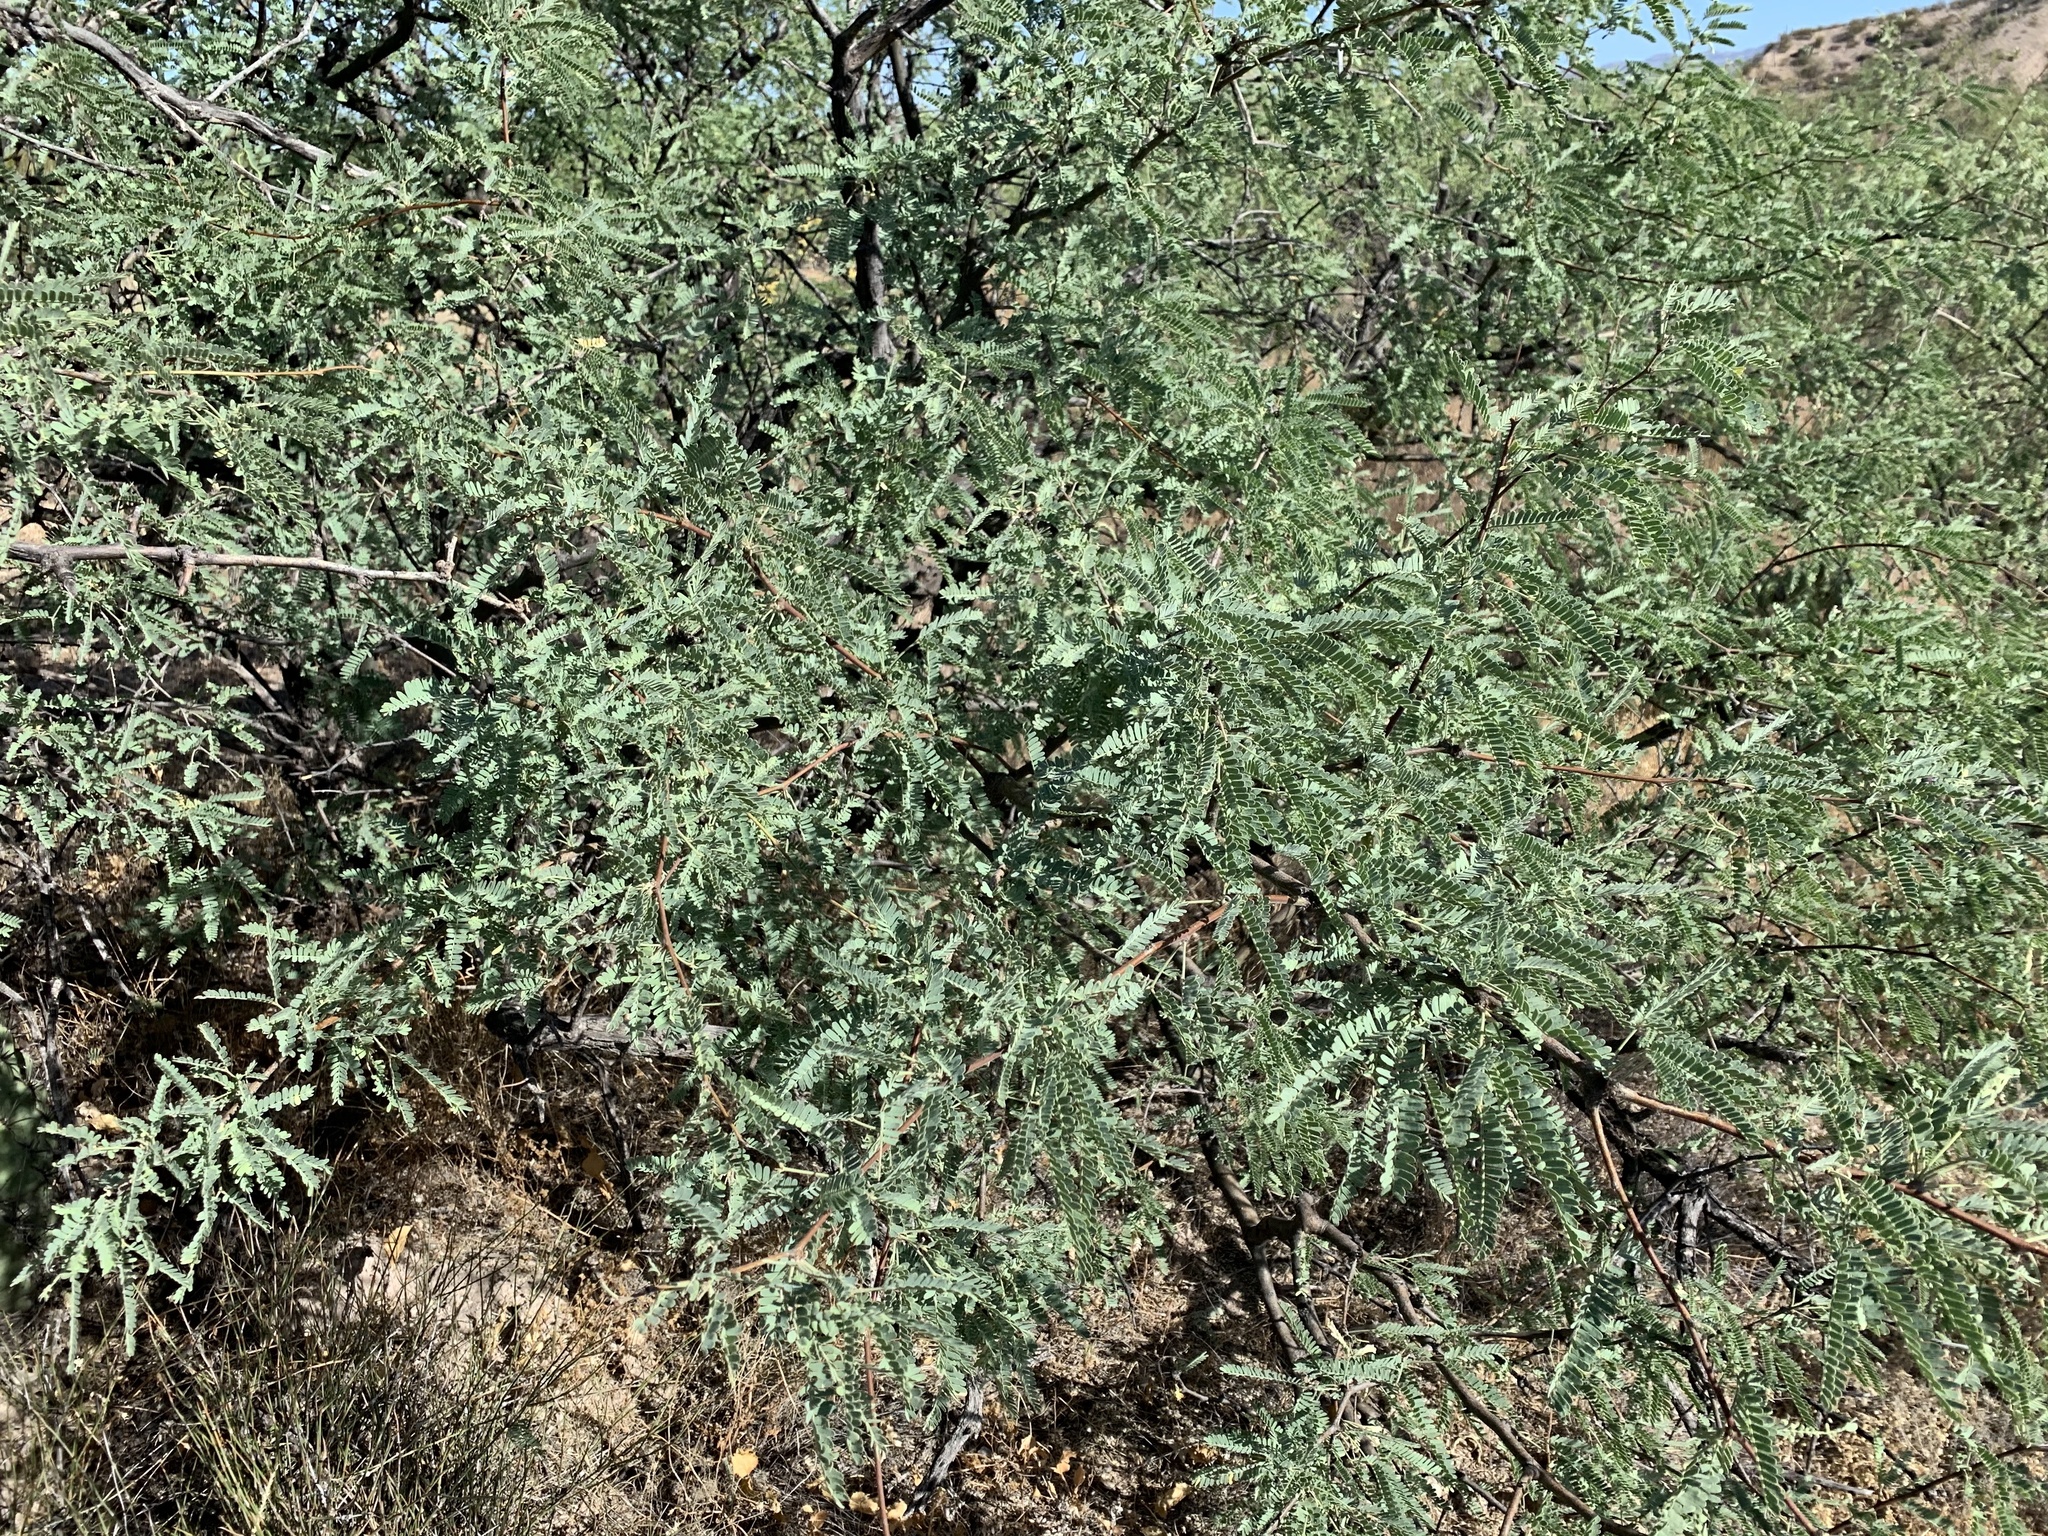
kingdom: Plantae
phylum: Tracheophyta
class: Magnoliopsida
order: Fabales
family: Fabaceae
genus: Prosopis
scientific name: Prosopis velutina
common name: Velvet mesquite
